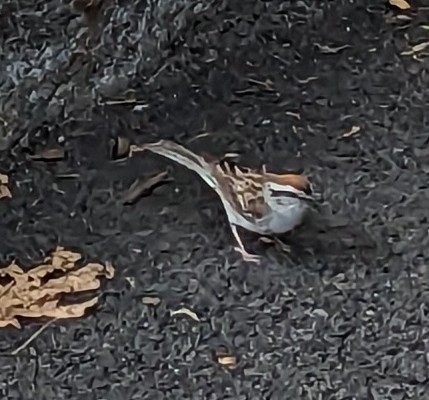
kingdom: Animalia
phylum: Chordata
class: Aves
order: Passeriformes
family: Passerellidae
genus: Spizella
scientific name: Spizella passerina
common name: Chipping sparrow
